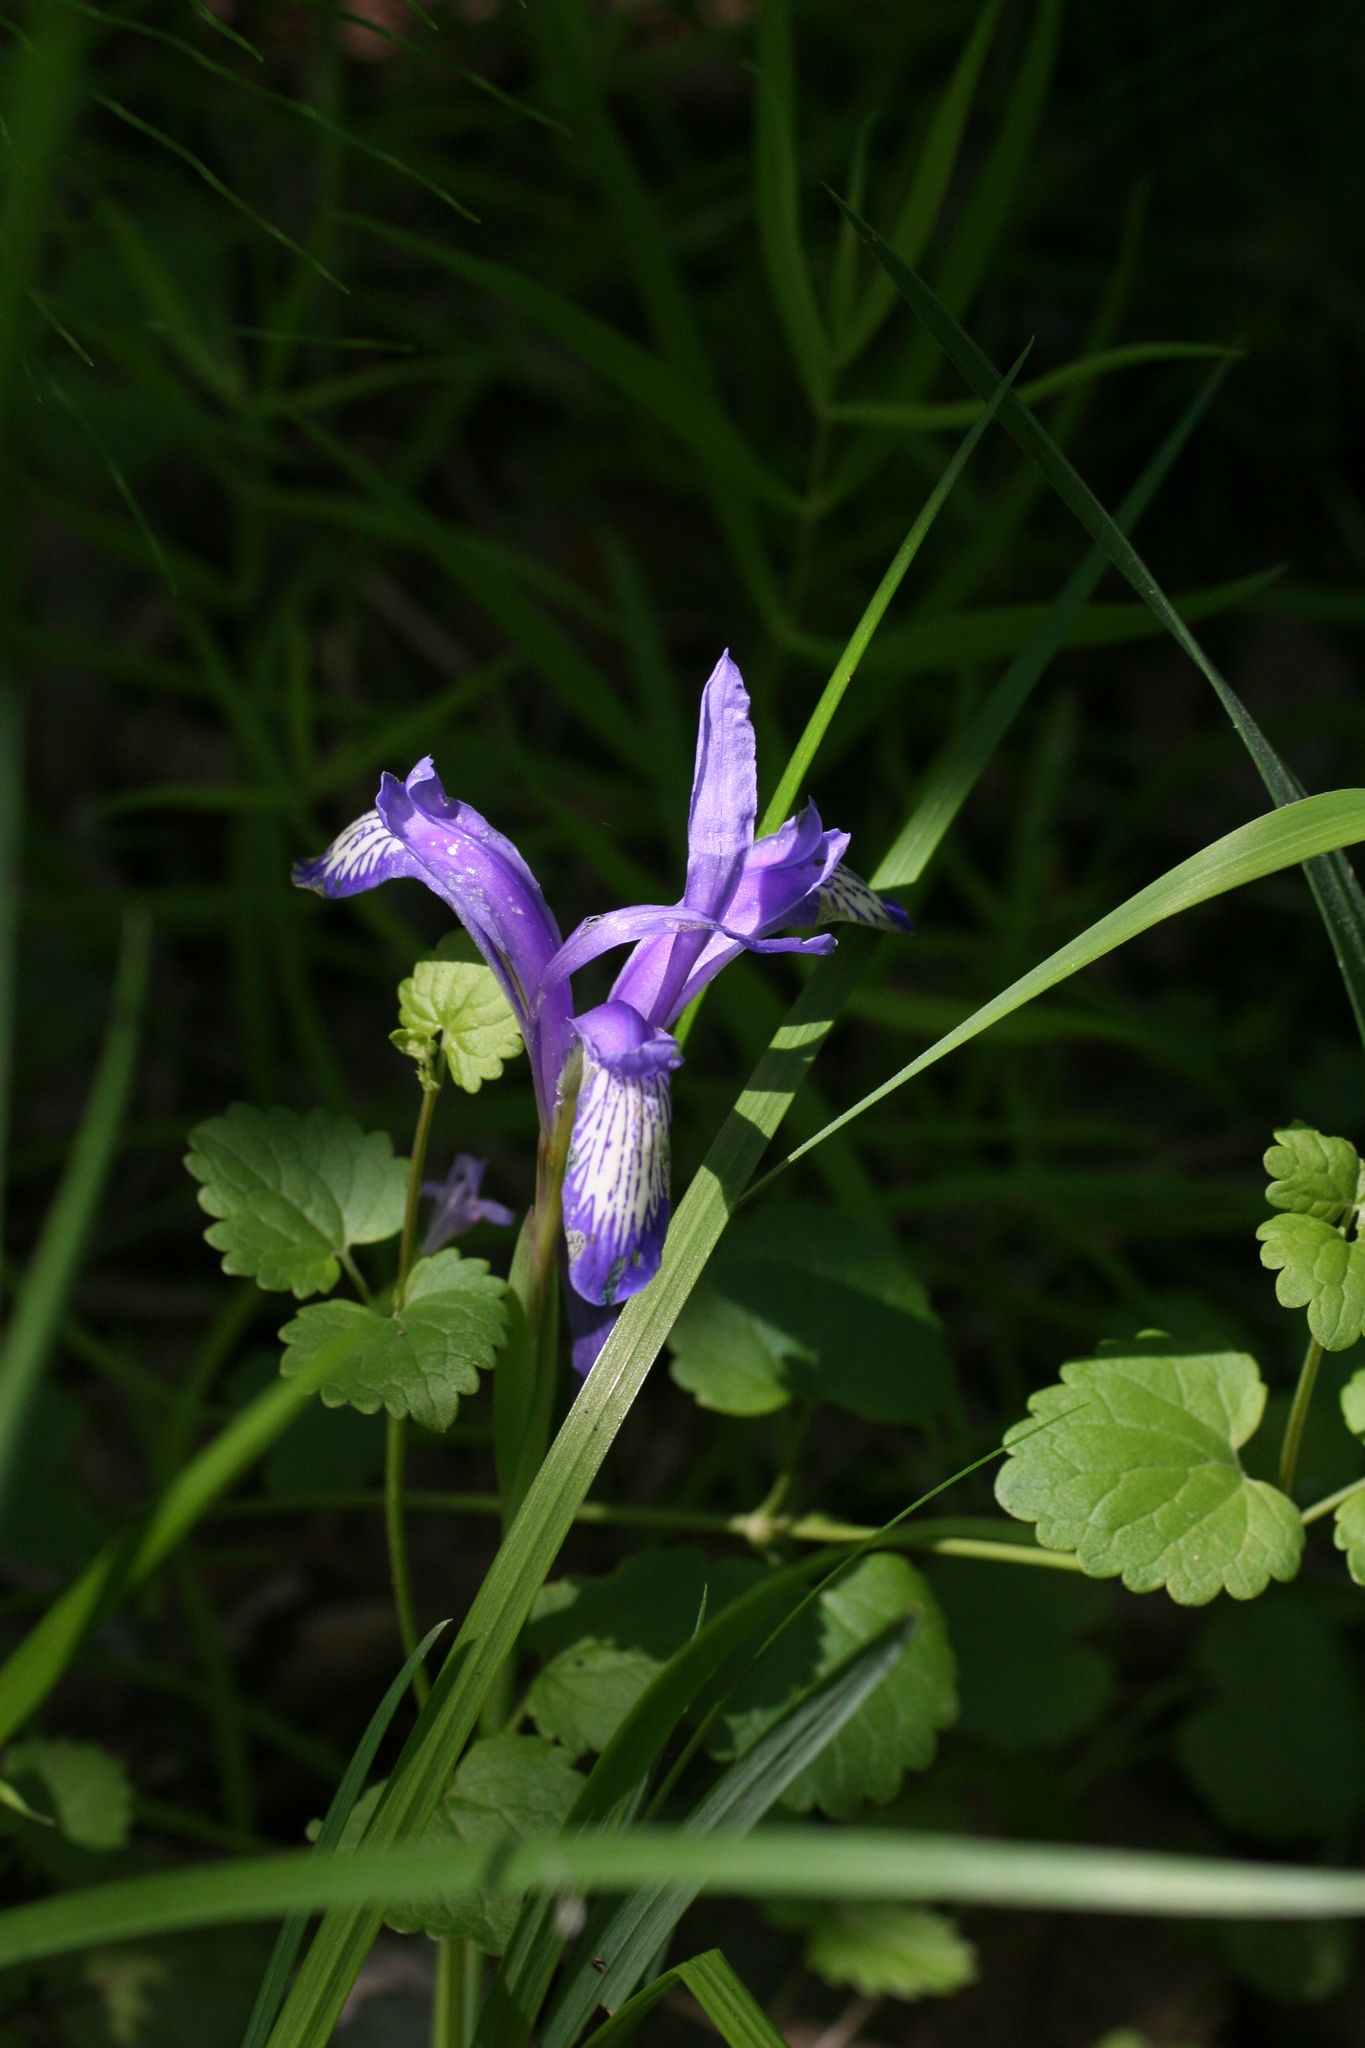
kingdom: Plantae
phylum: Tracheophyta
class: Liliopsida
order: Asparagales
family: Iridaceae
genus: Iris
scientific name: Iris ruthenica
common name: Purple-bract iris
